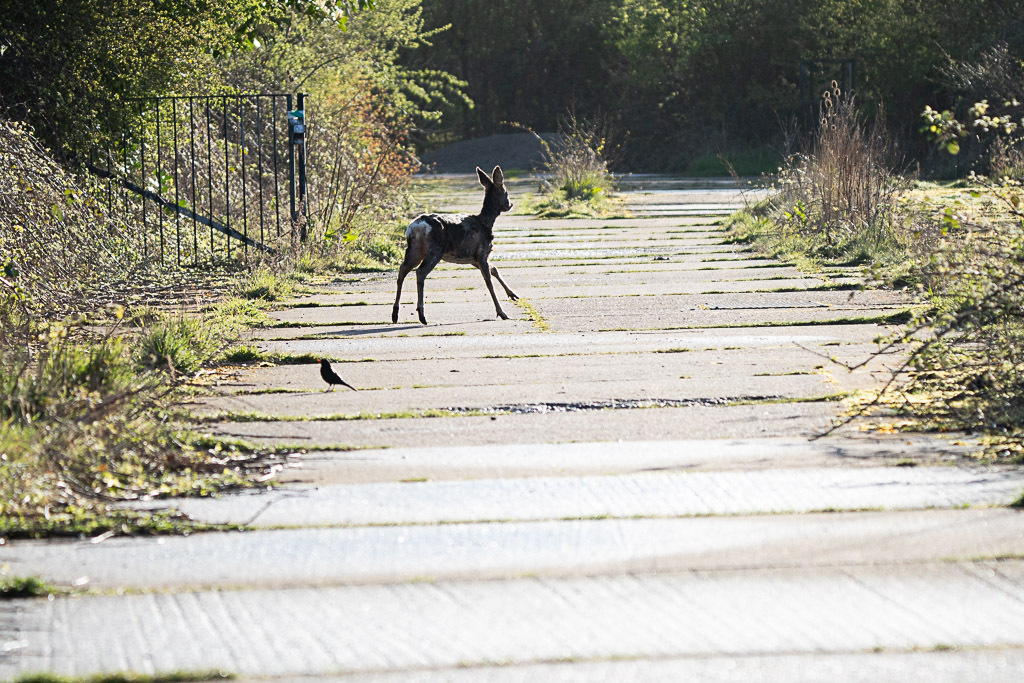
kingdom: Animalia
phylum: Chordata
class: Mammalia
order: Artiodactyla
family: Cervidae
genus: Capreolus
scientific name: Capreolus capreolus
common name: Western roe deer
